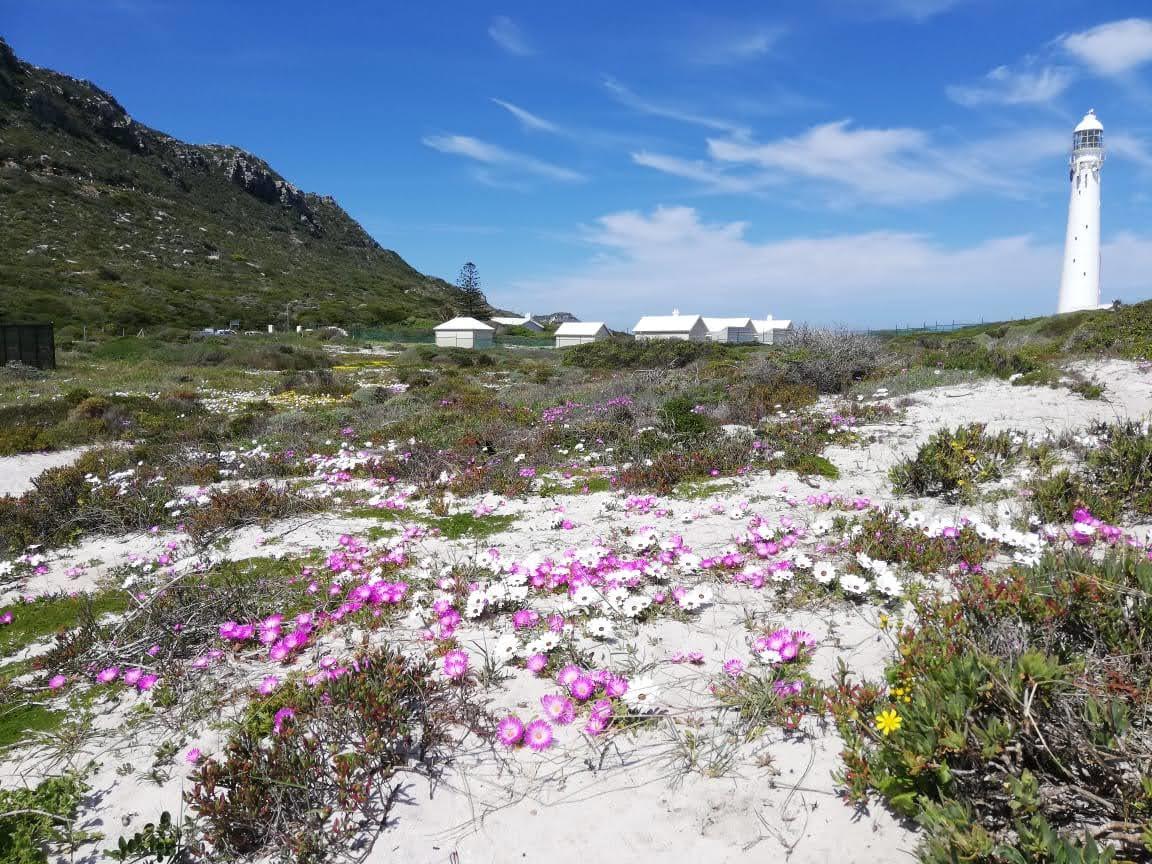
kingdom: Plantae
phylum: Tracheophyta
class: Magnoliopsida
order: Caryophyllales
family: Aizoaceae
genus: Cleretum
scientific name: Cleretum bellidiforme
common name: Livingstone daisy
